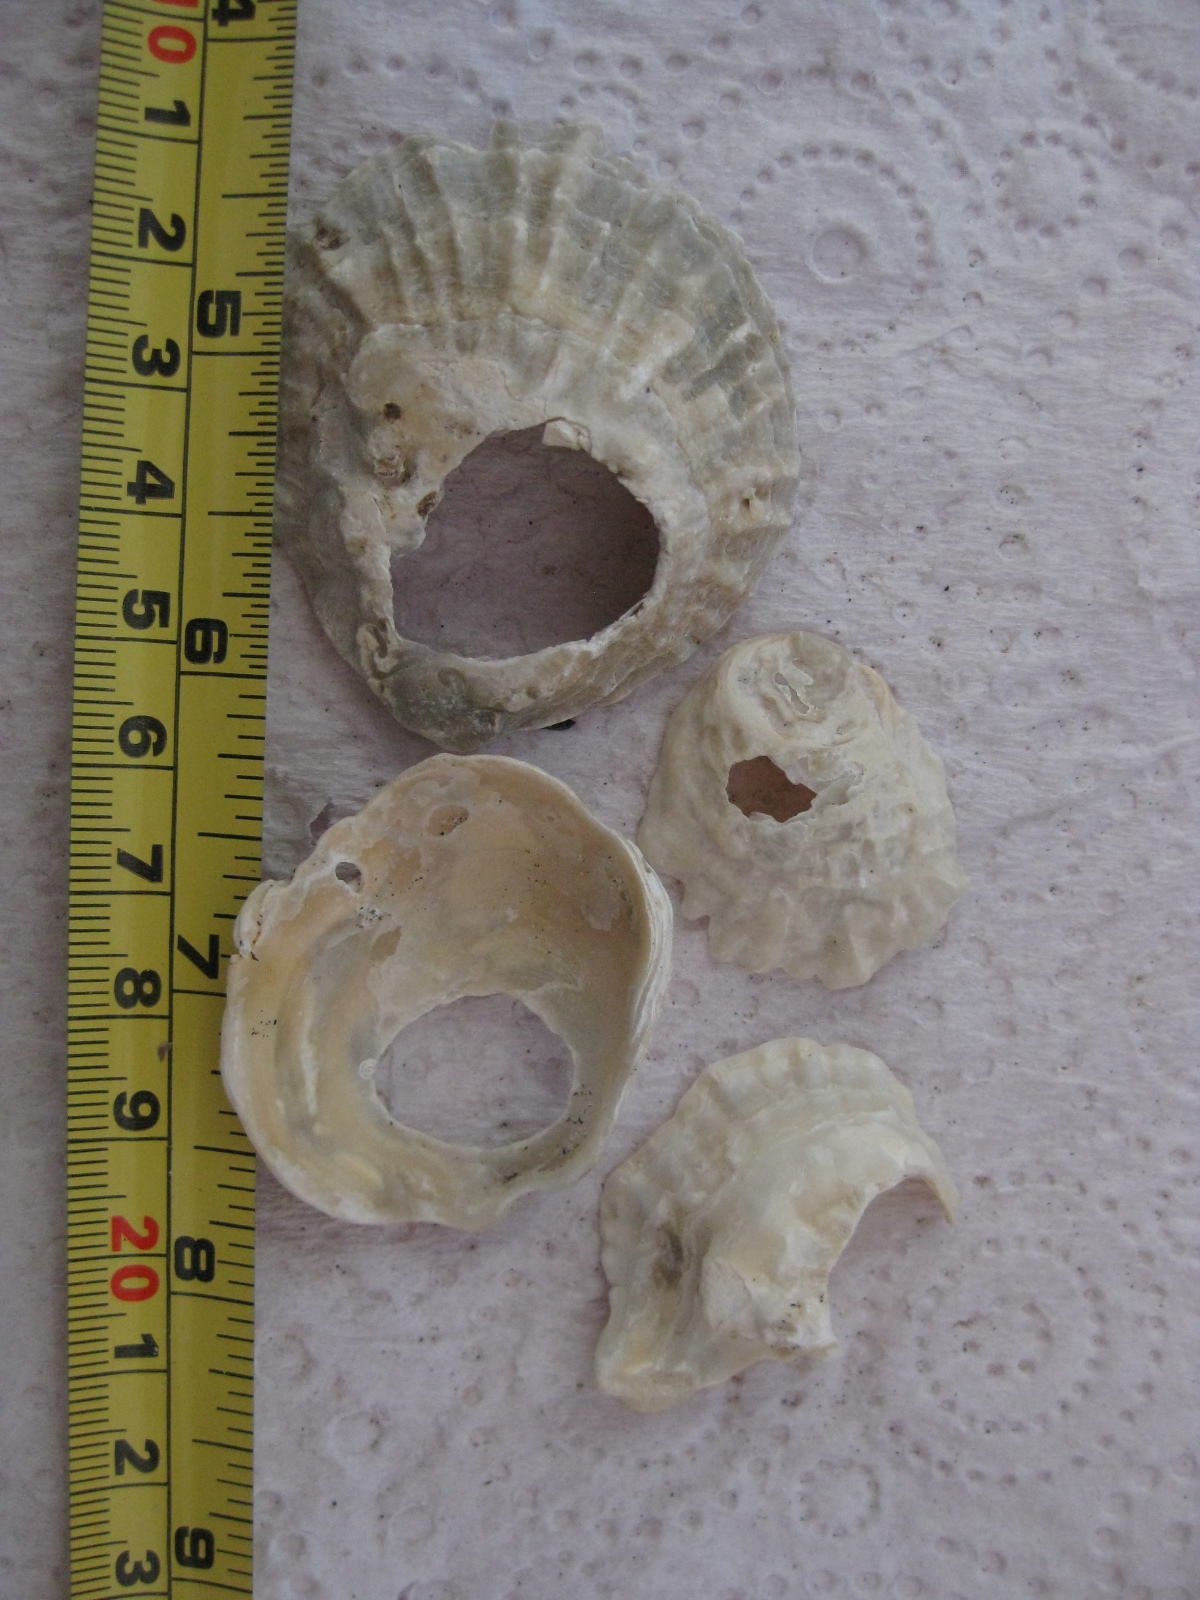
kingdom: Animalia
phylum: Mollusca
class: Bivalvia
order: Ostreida
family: Ostreidae
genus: Ostrea
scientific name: Ostrea chilensis
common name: Chilean oyster
